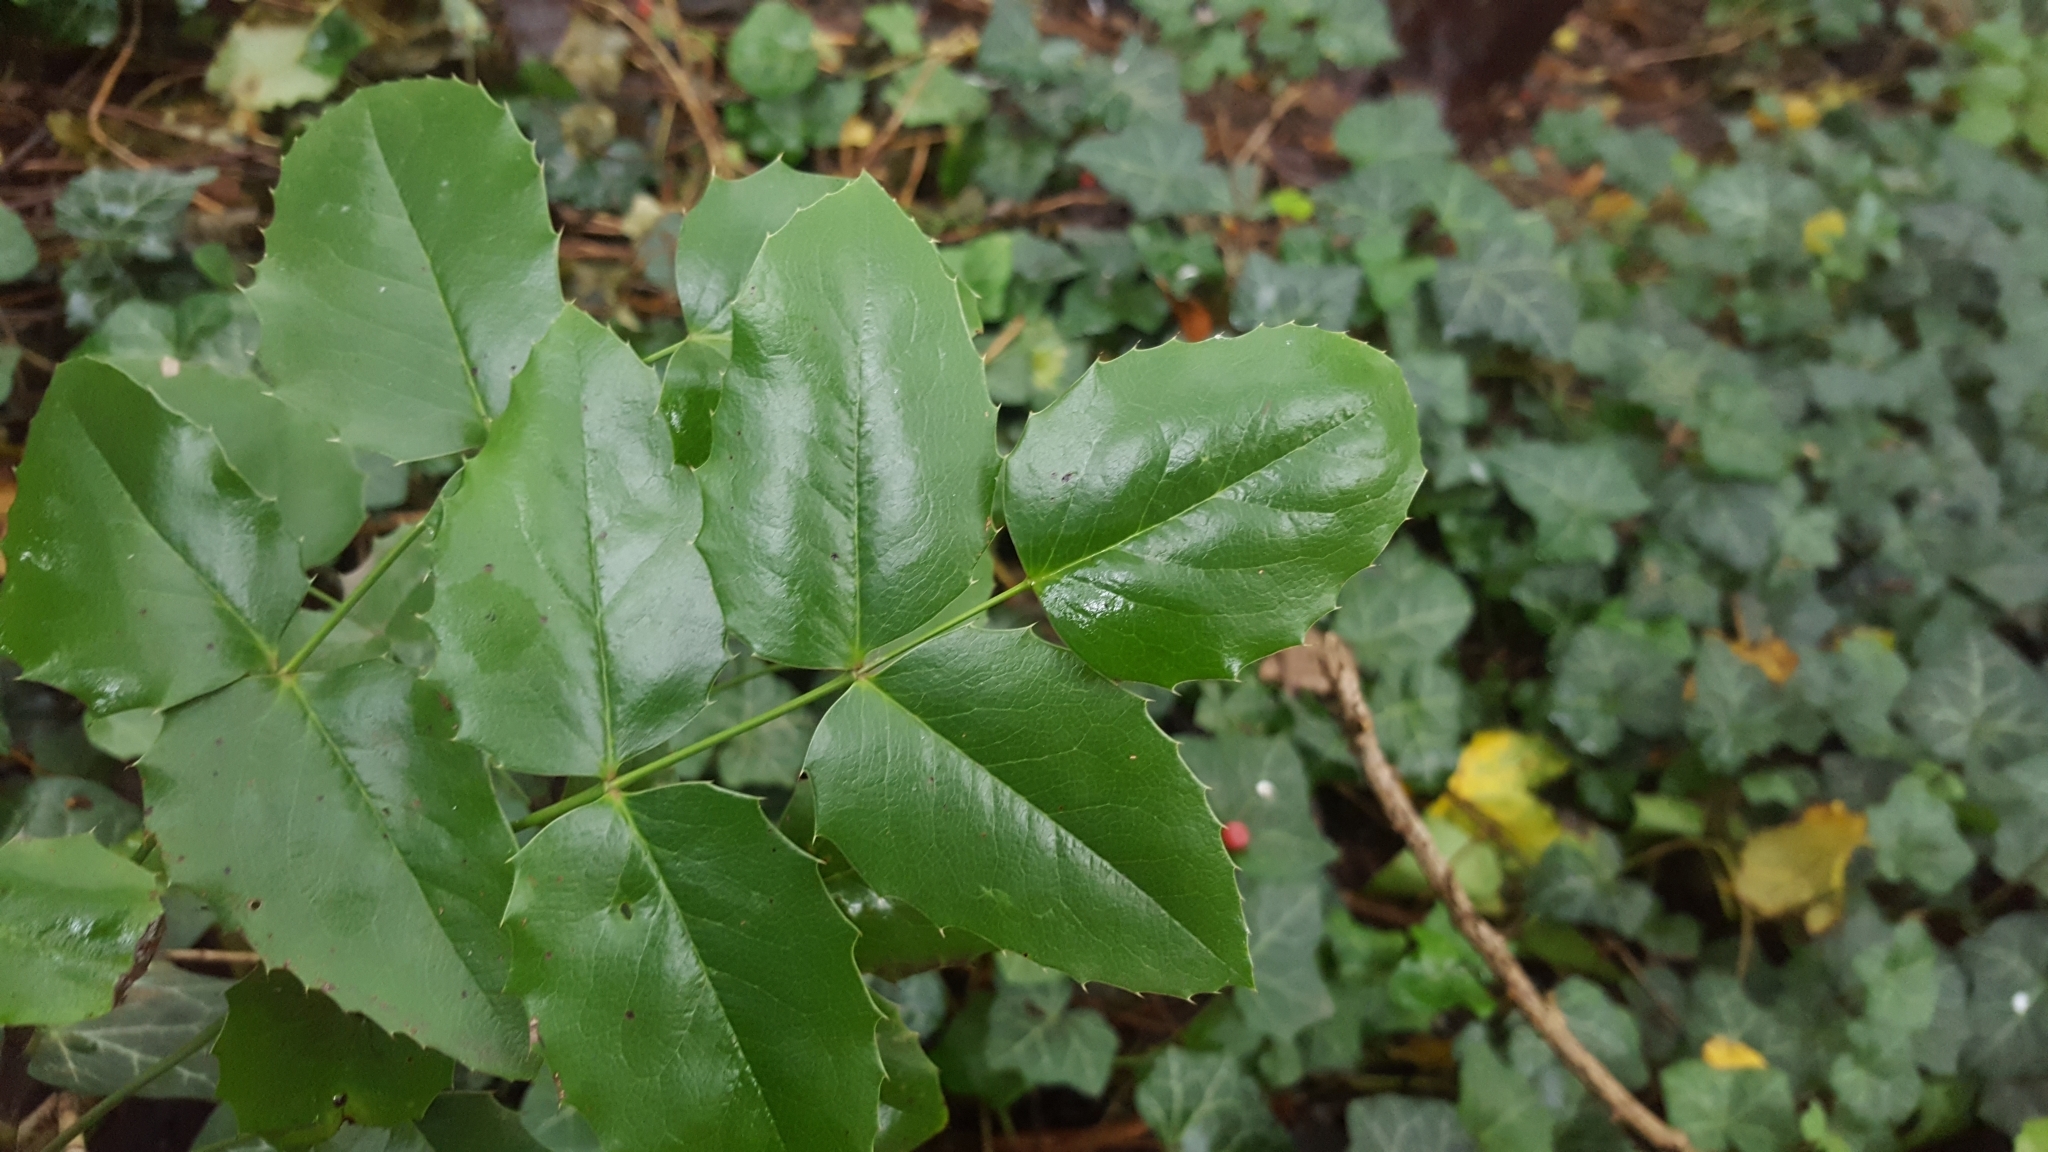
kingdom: Plantae
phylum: Tracheophyta
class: Magnoliopsida
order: Ranunculales
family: Berberidaceae
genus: Mahonia
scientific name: Mahonia aquifolium
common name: Oregon-grape
